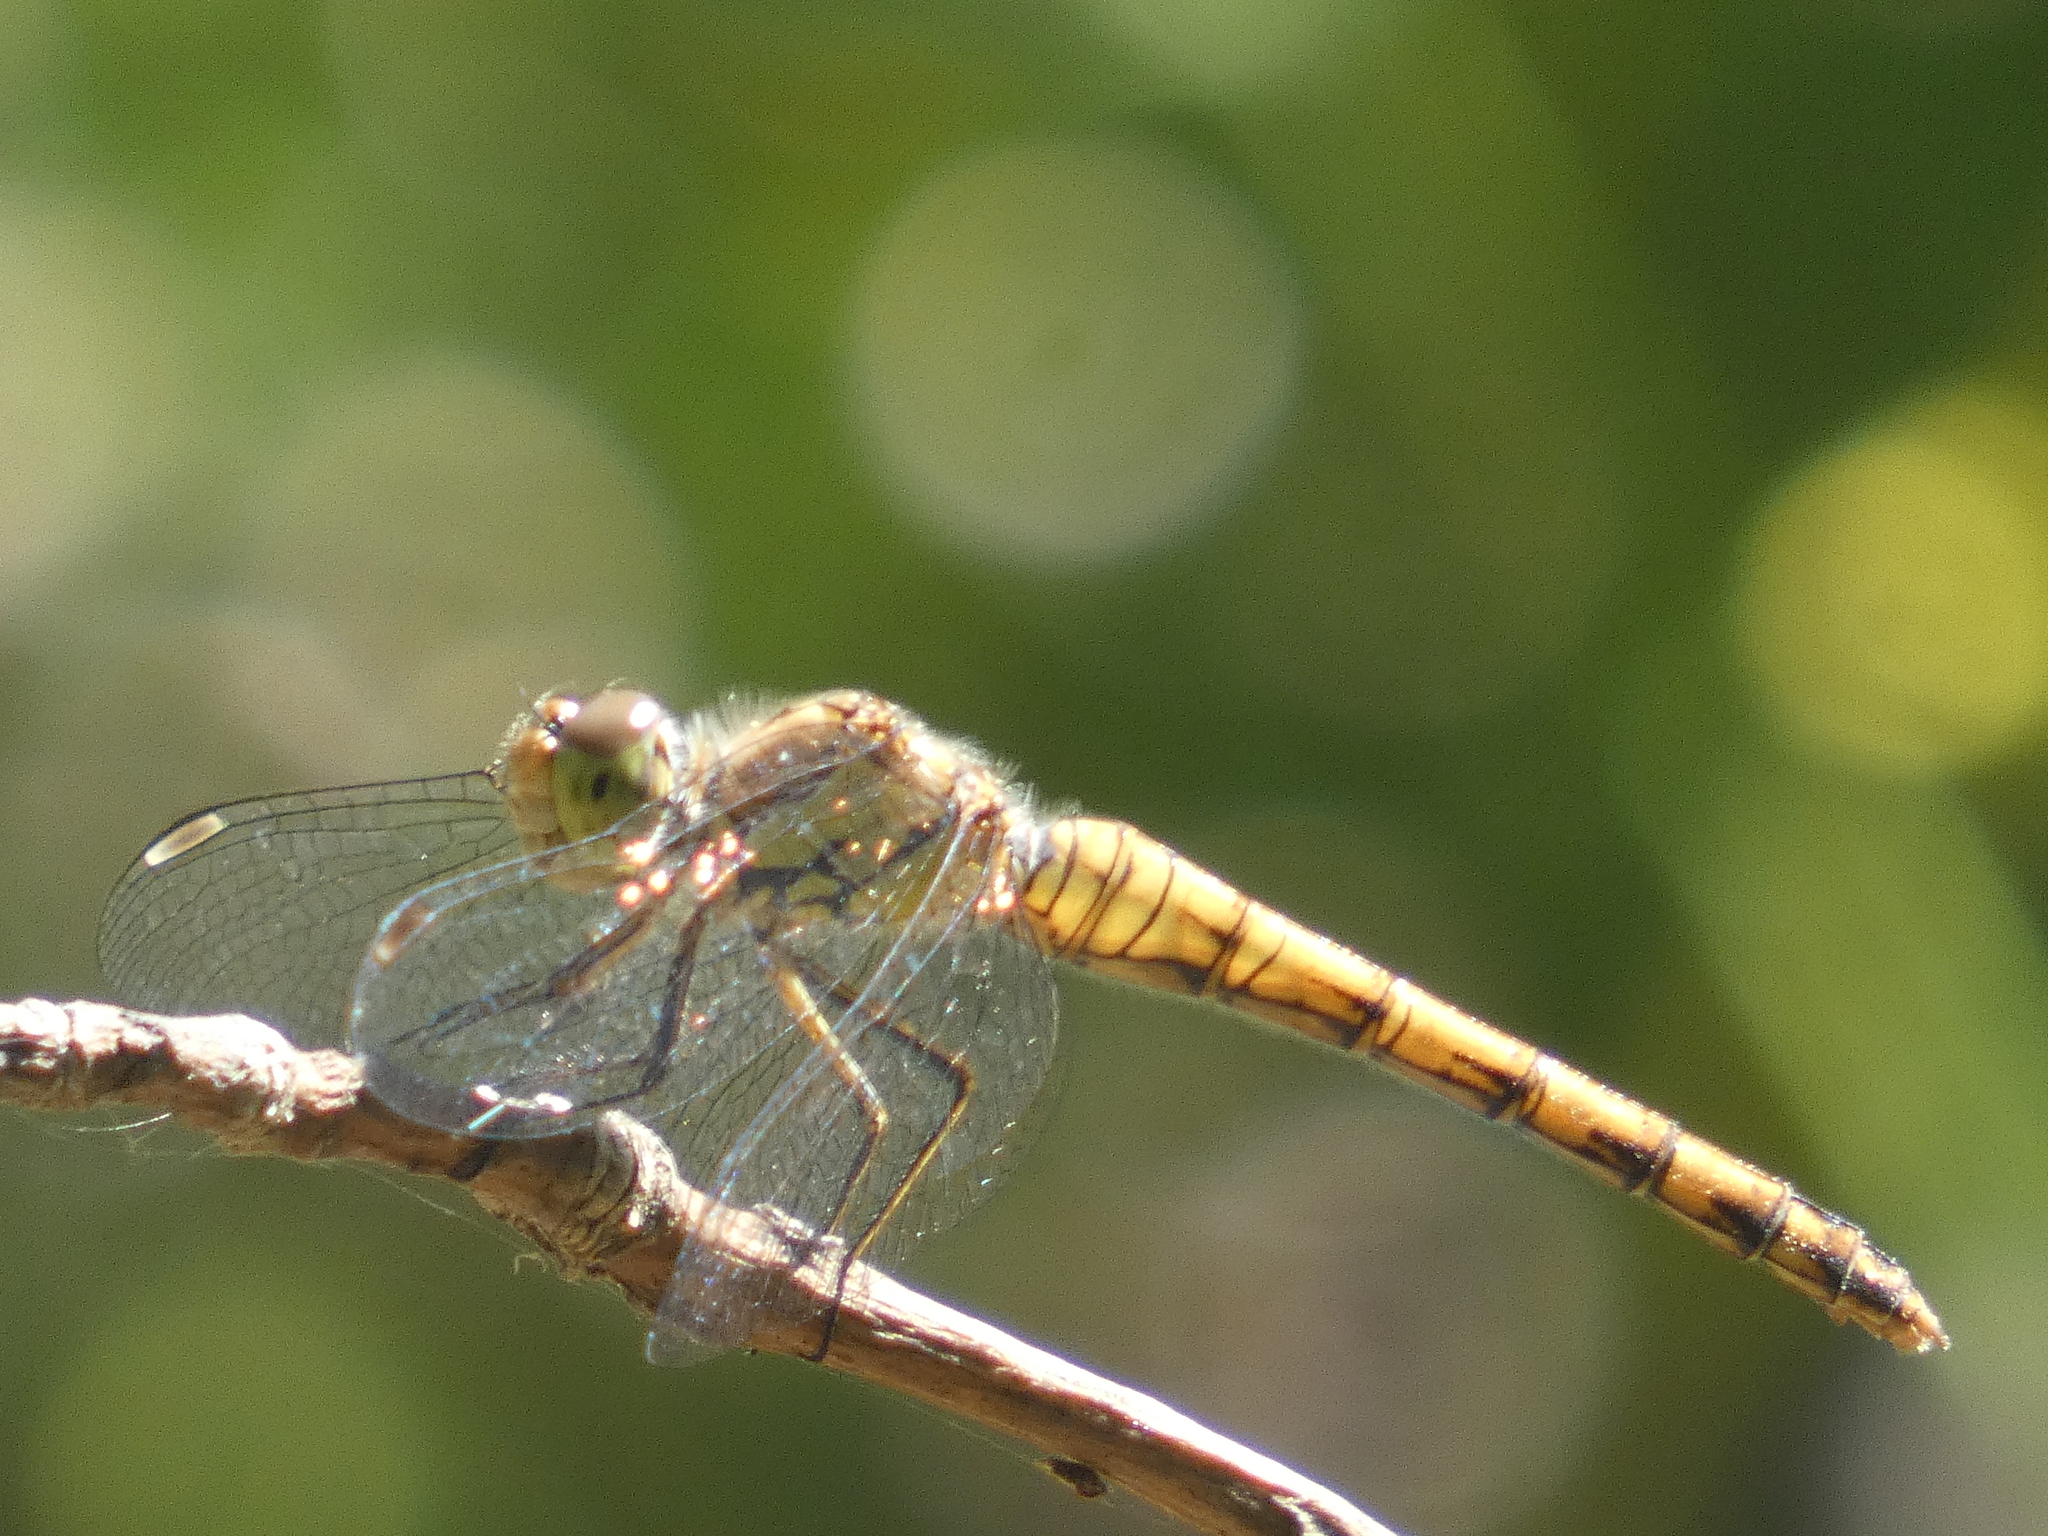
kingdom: Animalia
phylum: Arthropoda
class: Insecta
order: Odonata
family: Libellulidae
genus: Sympetrum
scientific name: Sympetrum striolatum
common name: Common darter
